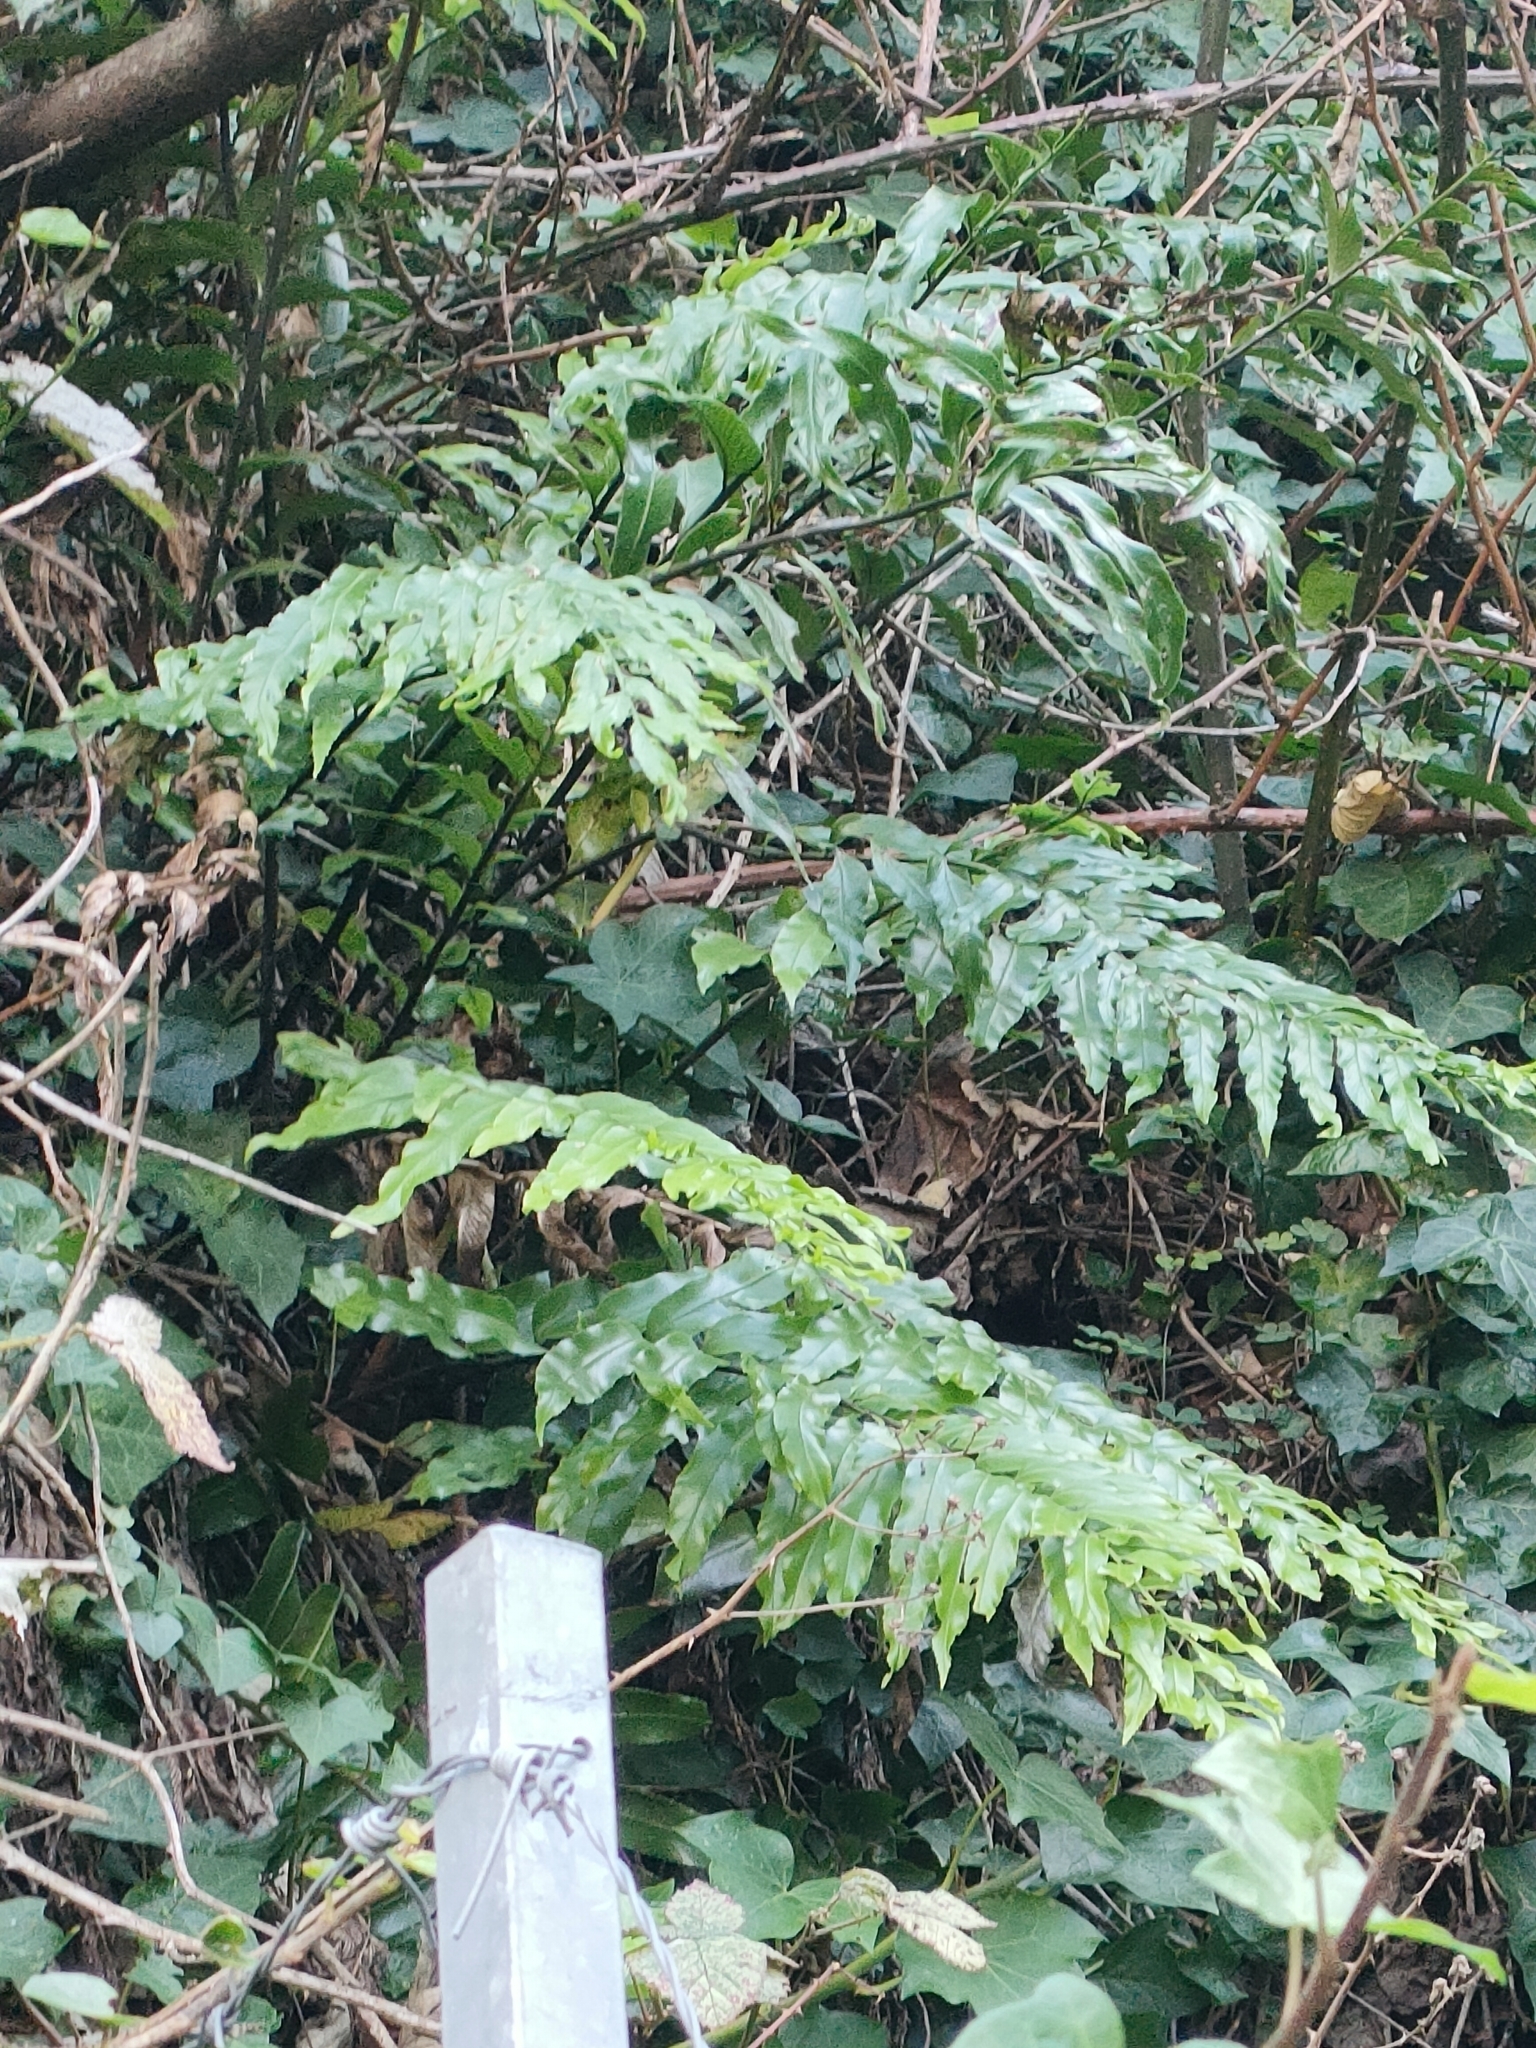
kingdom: Plantae
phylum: Tracheophyta
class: Polypodiopsida
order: Polypodiales
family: Aspleniaceae
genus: Asplenium
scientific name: Asplenium oblongifolium
